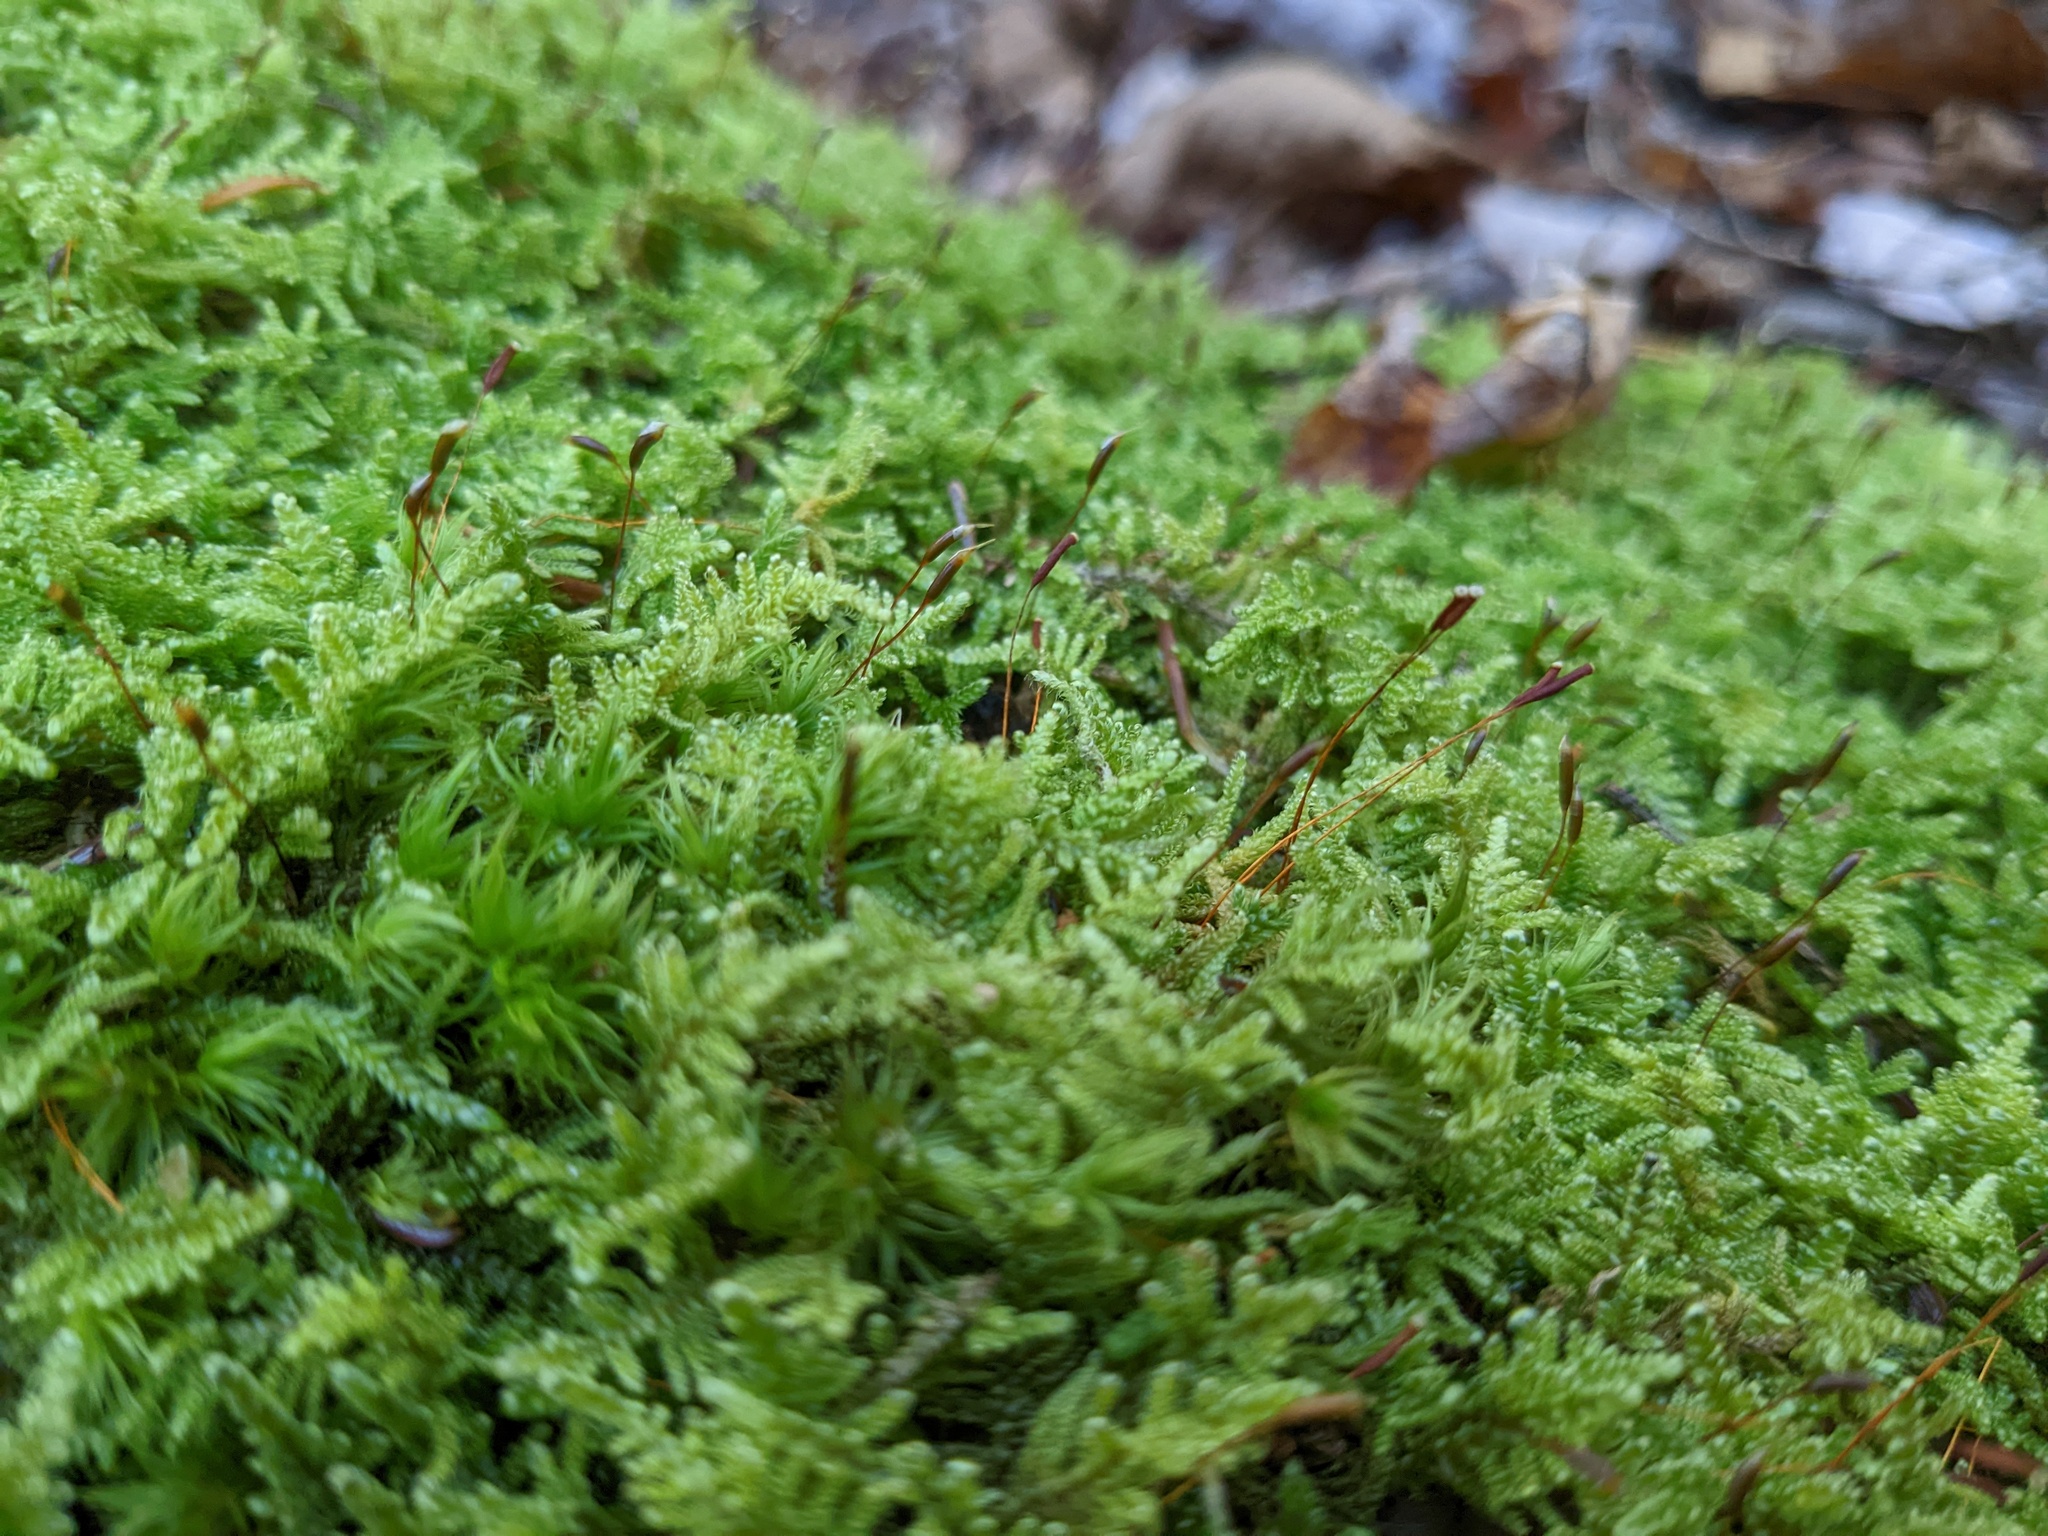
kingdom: Plantae
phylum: Bryophyta
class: Bryopsida
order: Hypnales
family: Callicladiaceae
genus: Callicladium
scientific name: Callicladium imponens
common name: Brocade moss
